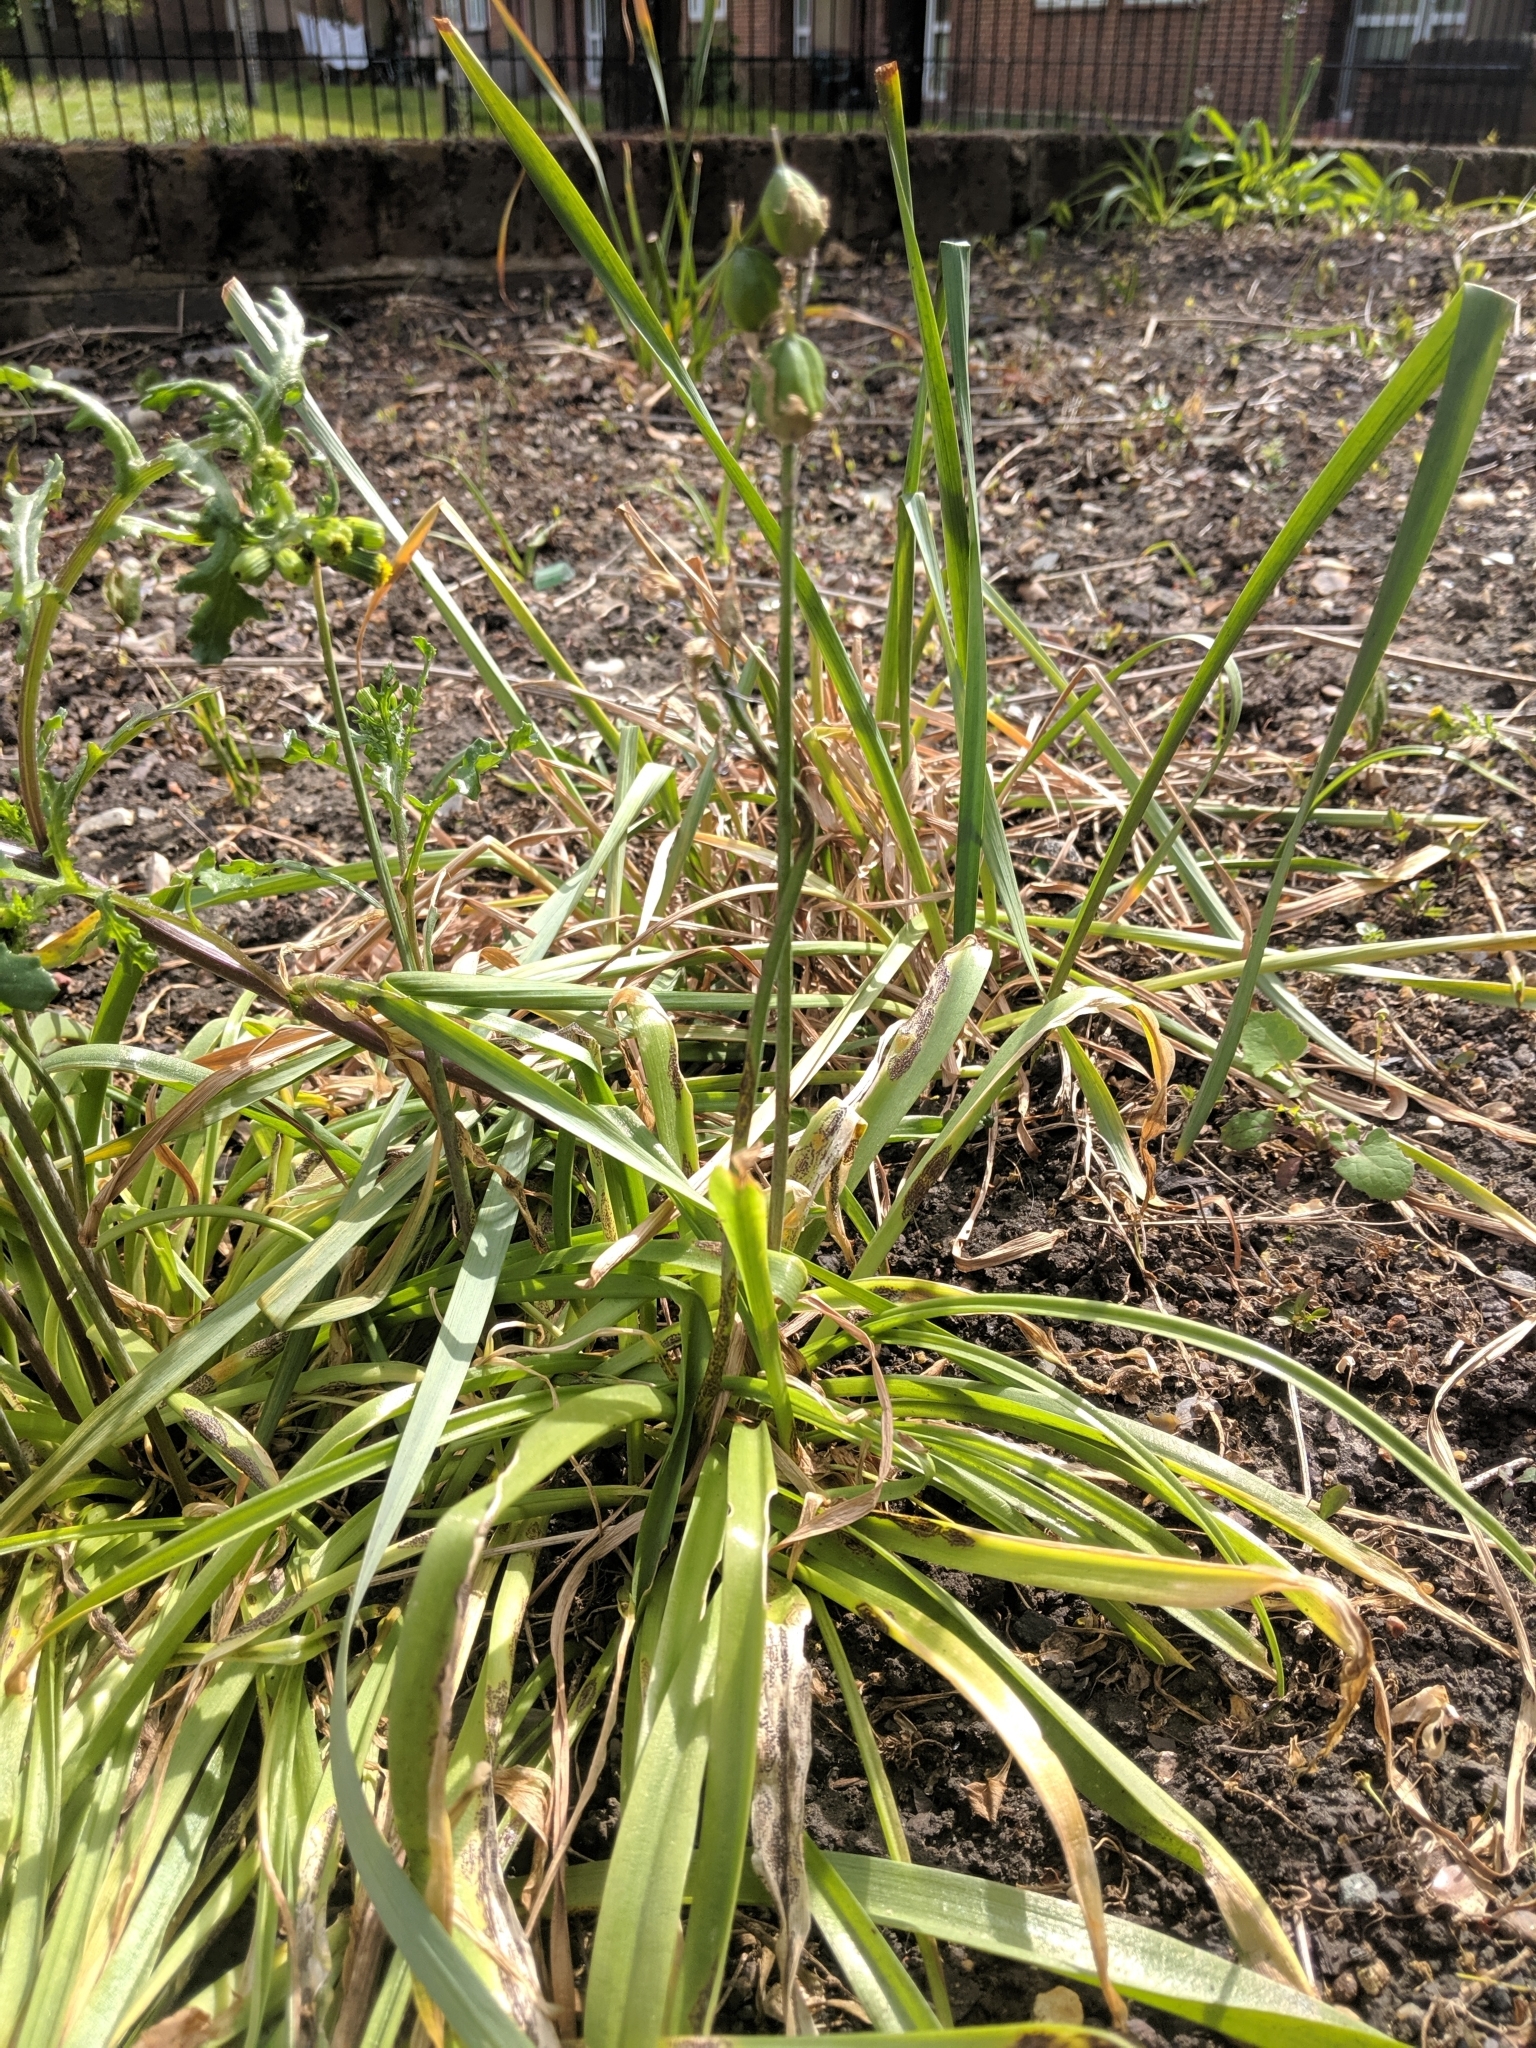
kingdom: Fungi
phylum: Basidiomycota
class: Pucciniomycetes
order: Pucciniales
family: Pucciniaceae
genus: Uromyces
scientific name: Uromyces hyacinthi
